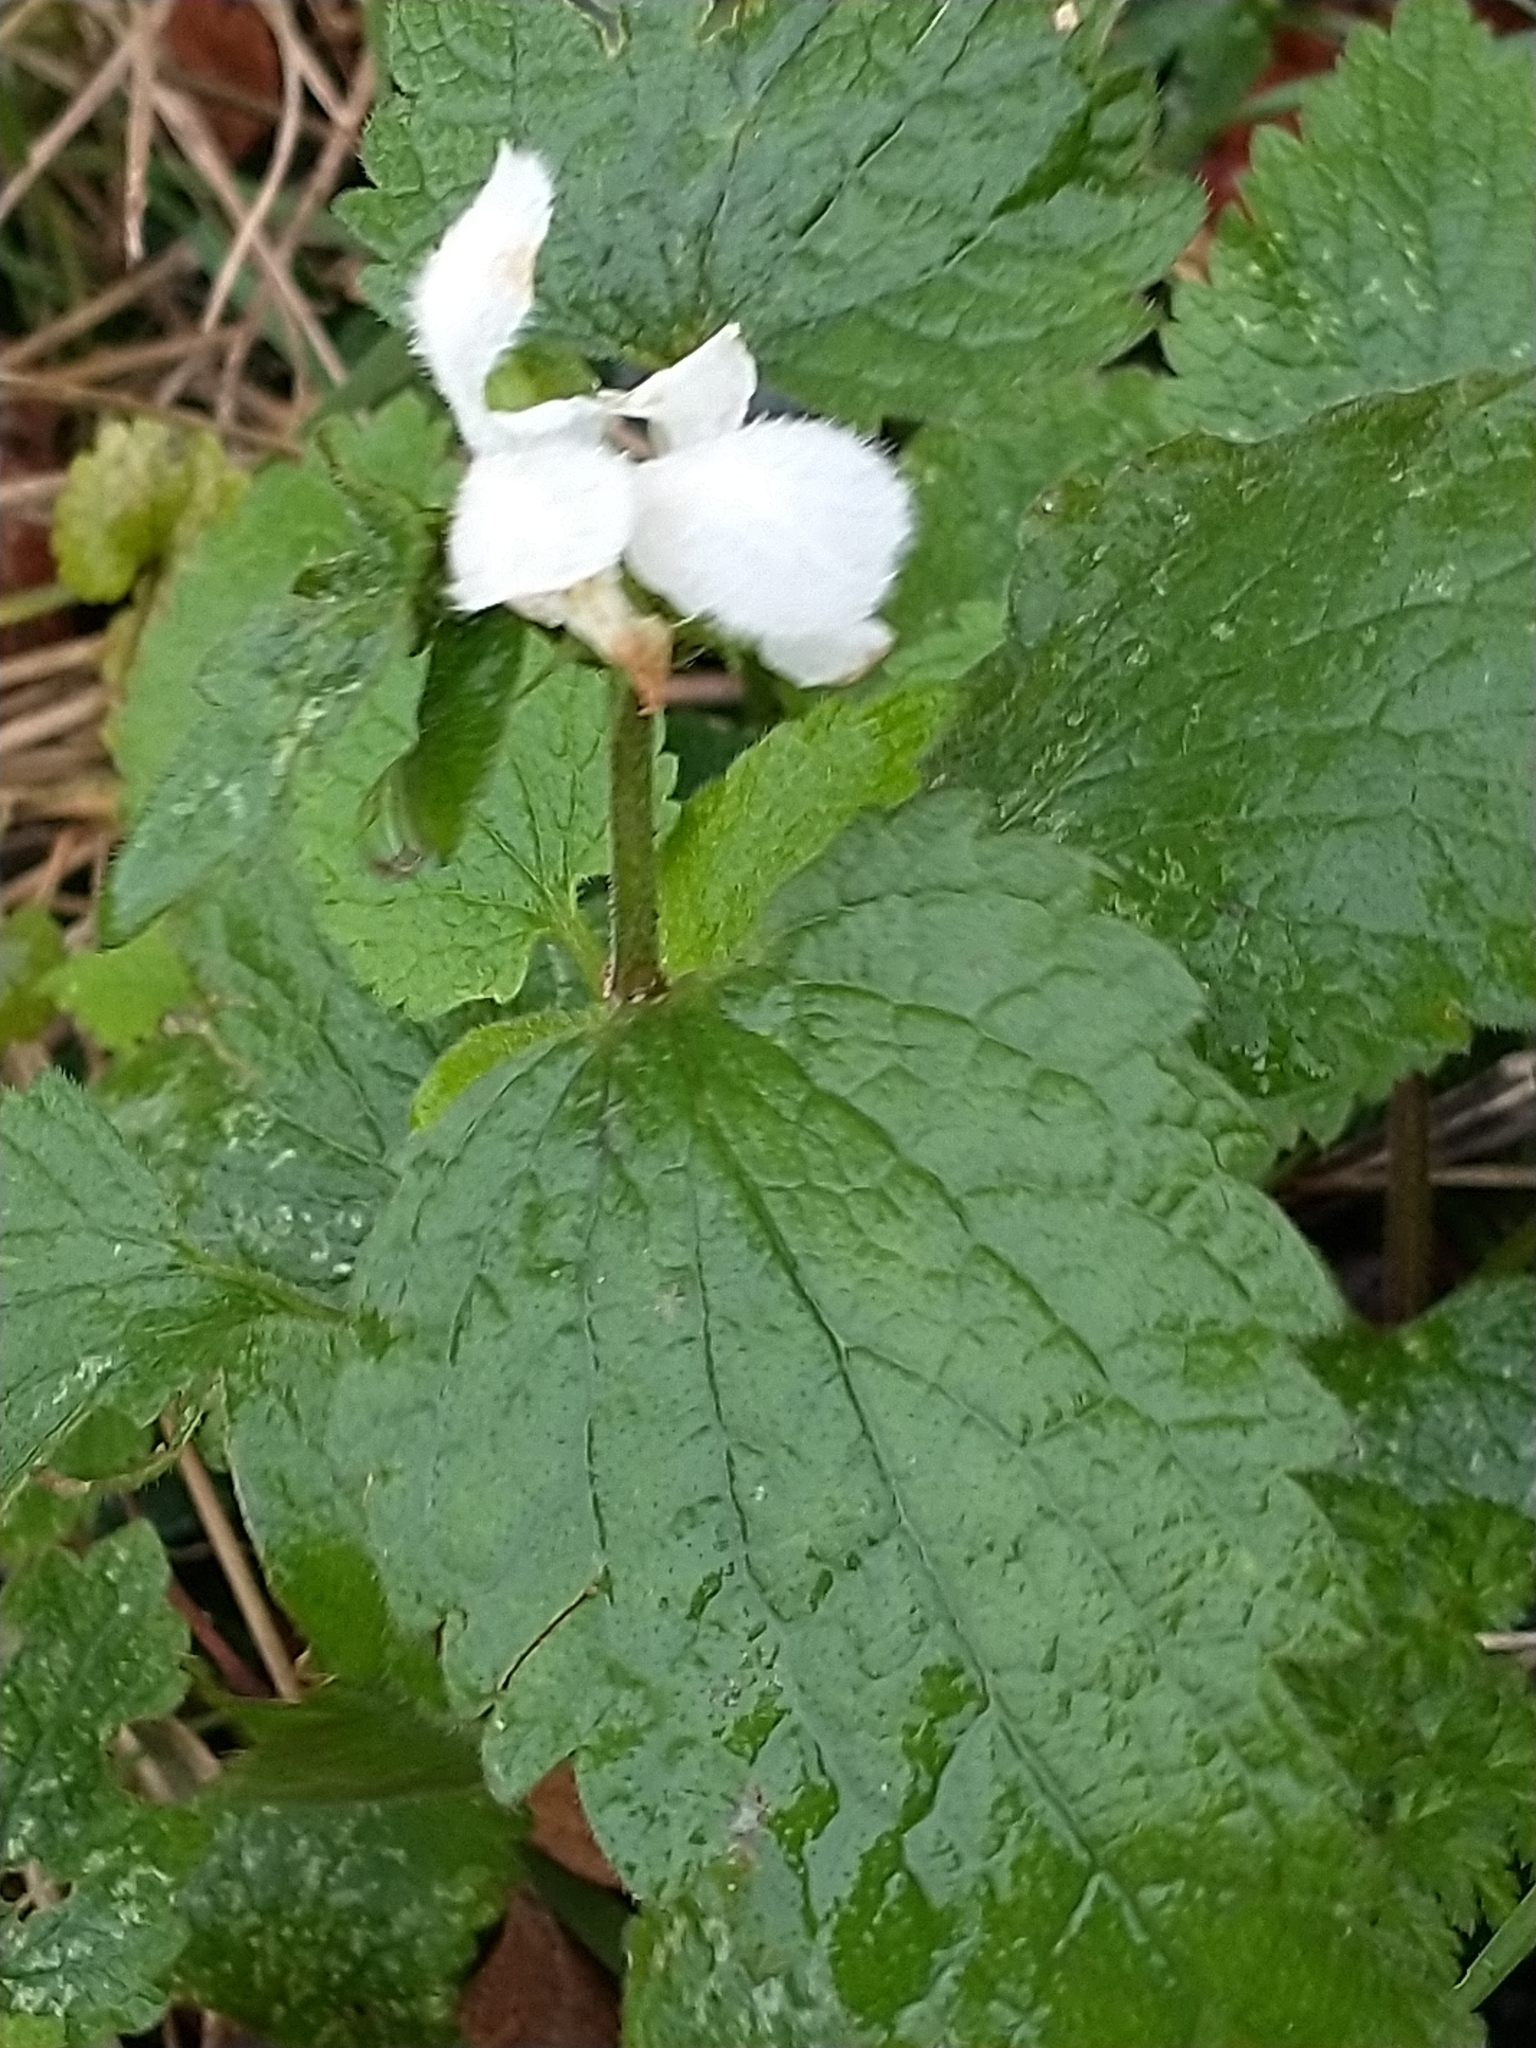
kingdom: Plantae
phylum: Tracheophyta
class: Magnoliopsida
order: Lamiales
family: Lamiaceae
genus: Lamium
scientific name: Lamium album
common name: White dead-nettle
